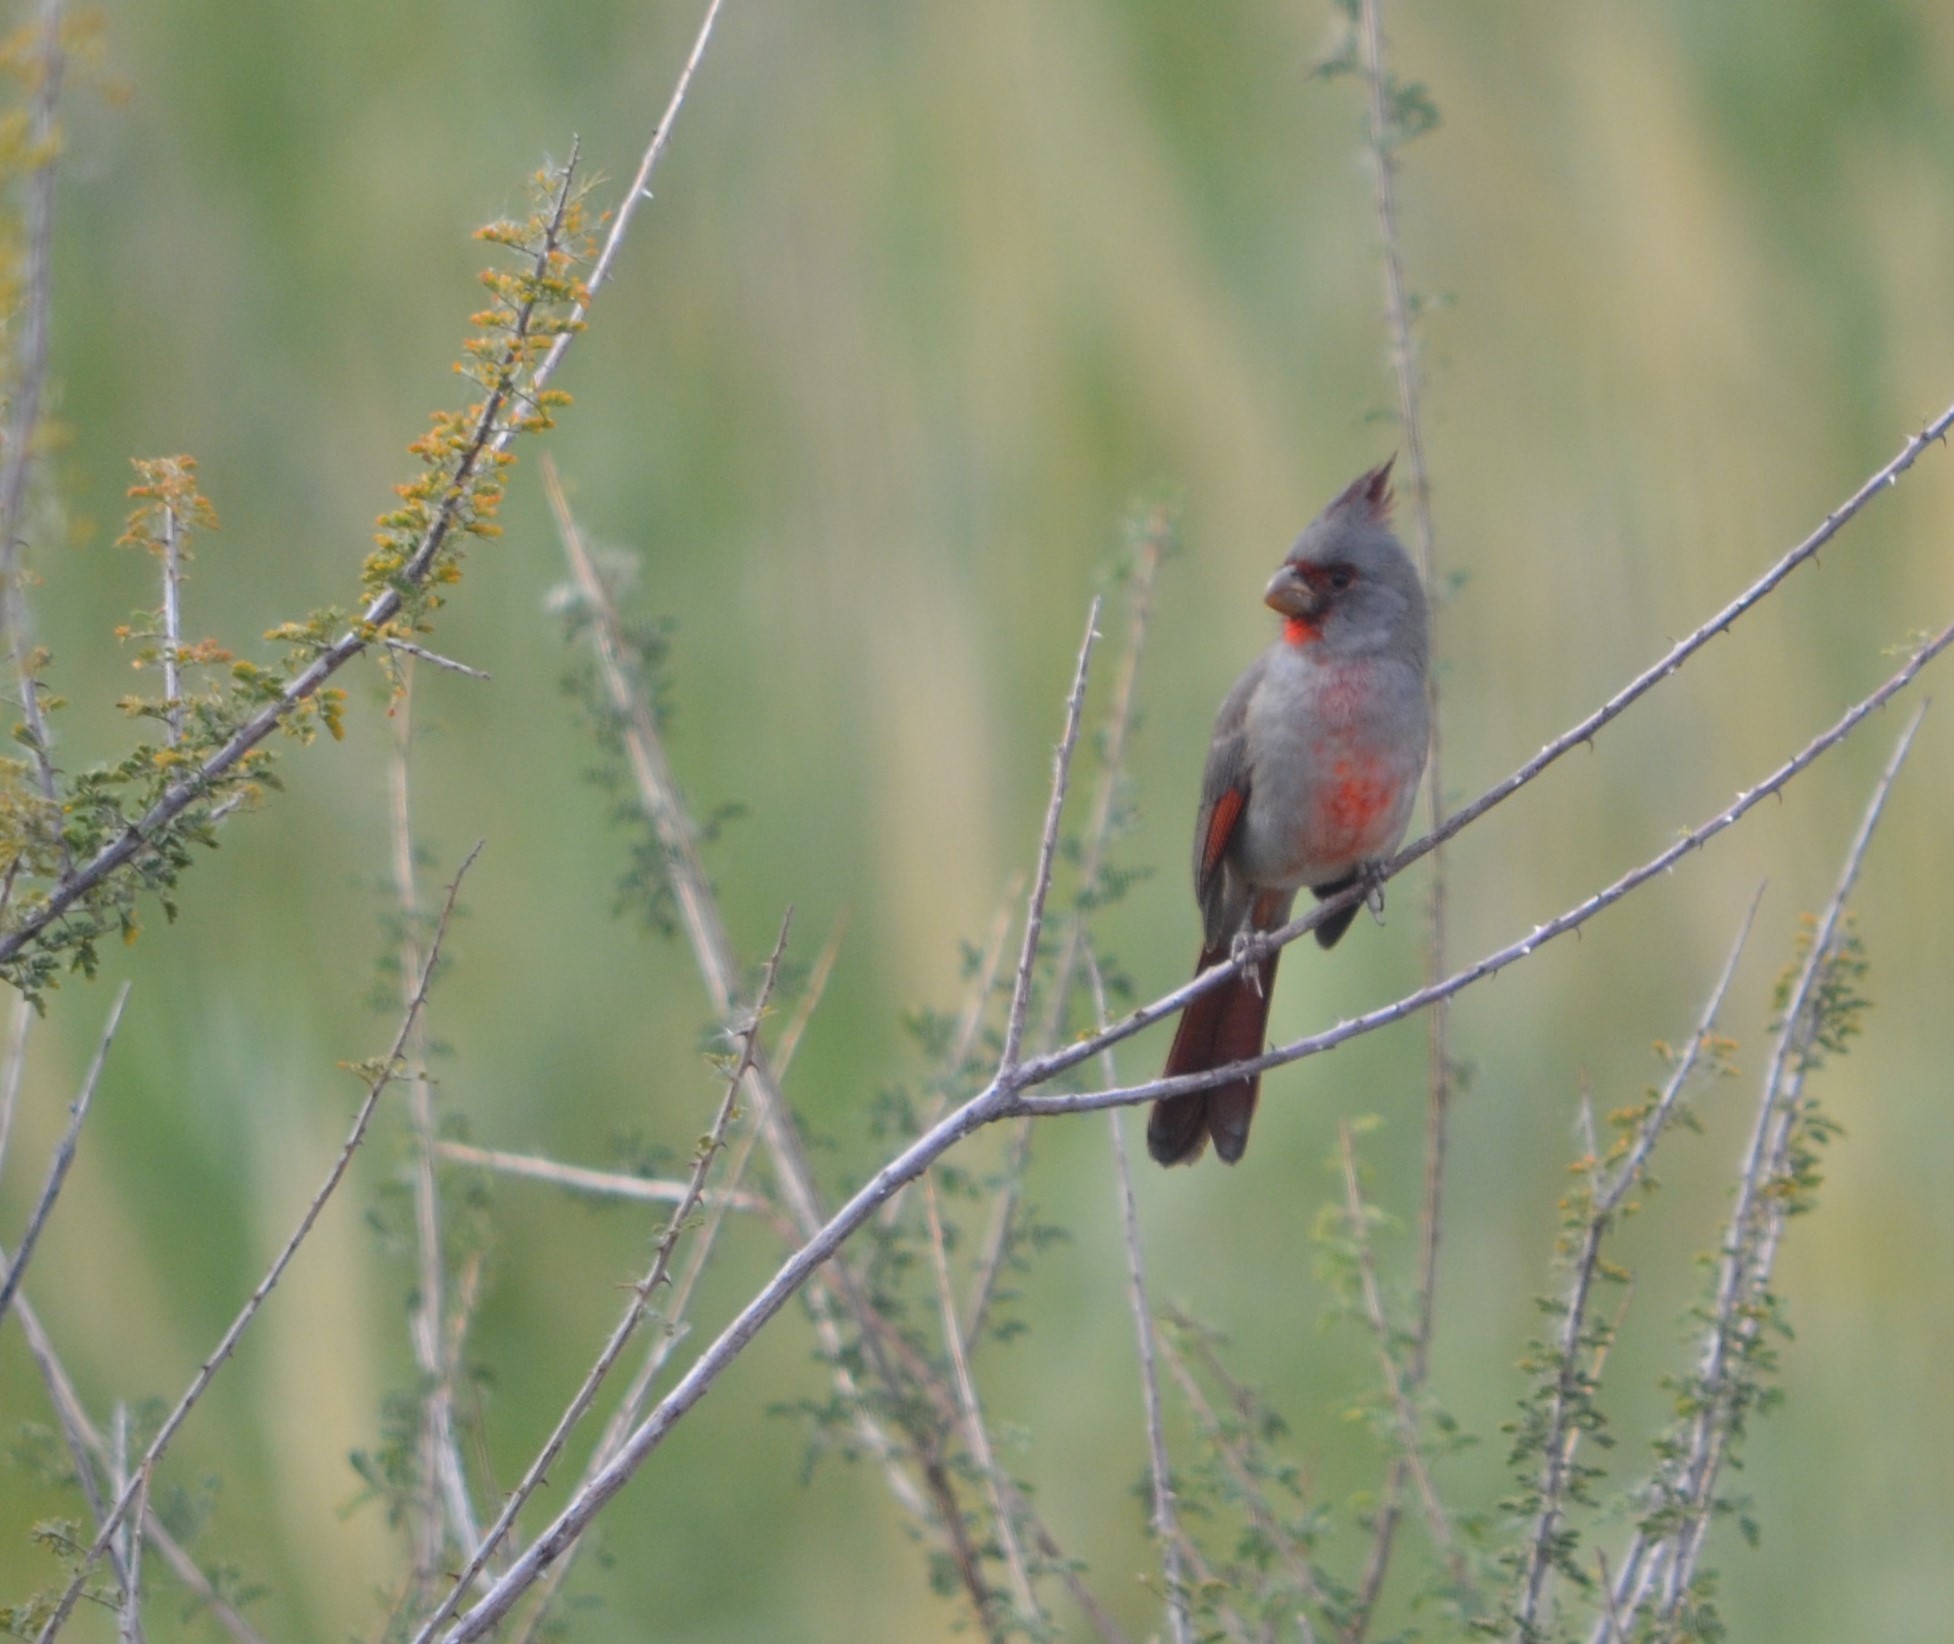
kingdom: Animalia
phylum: Chordata
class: Aves
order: Passeriformes
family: Cardinalidae
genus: Cardinalis
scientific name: Cardinalis sinuatus
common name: Pyrrhuloxia
